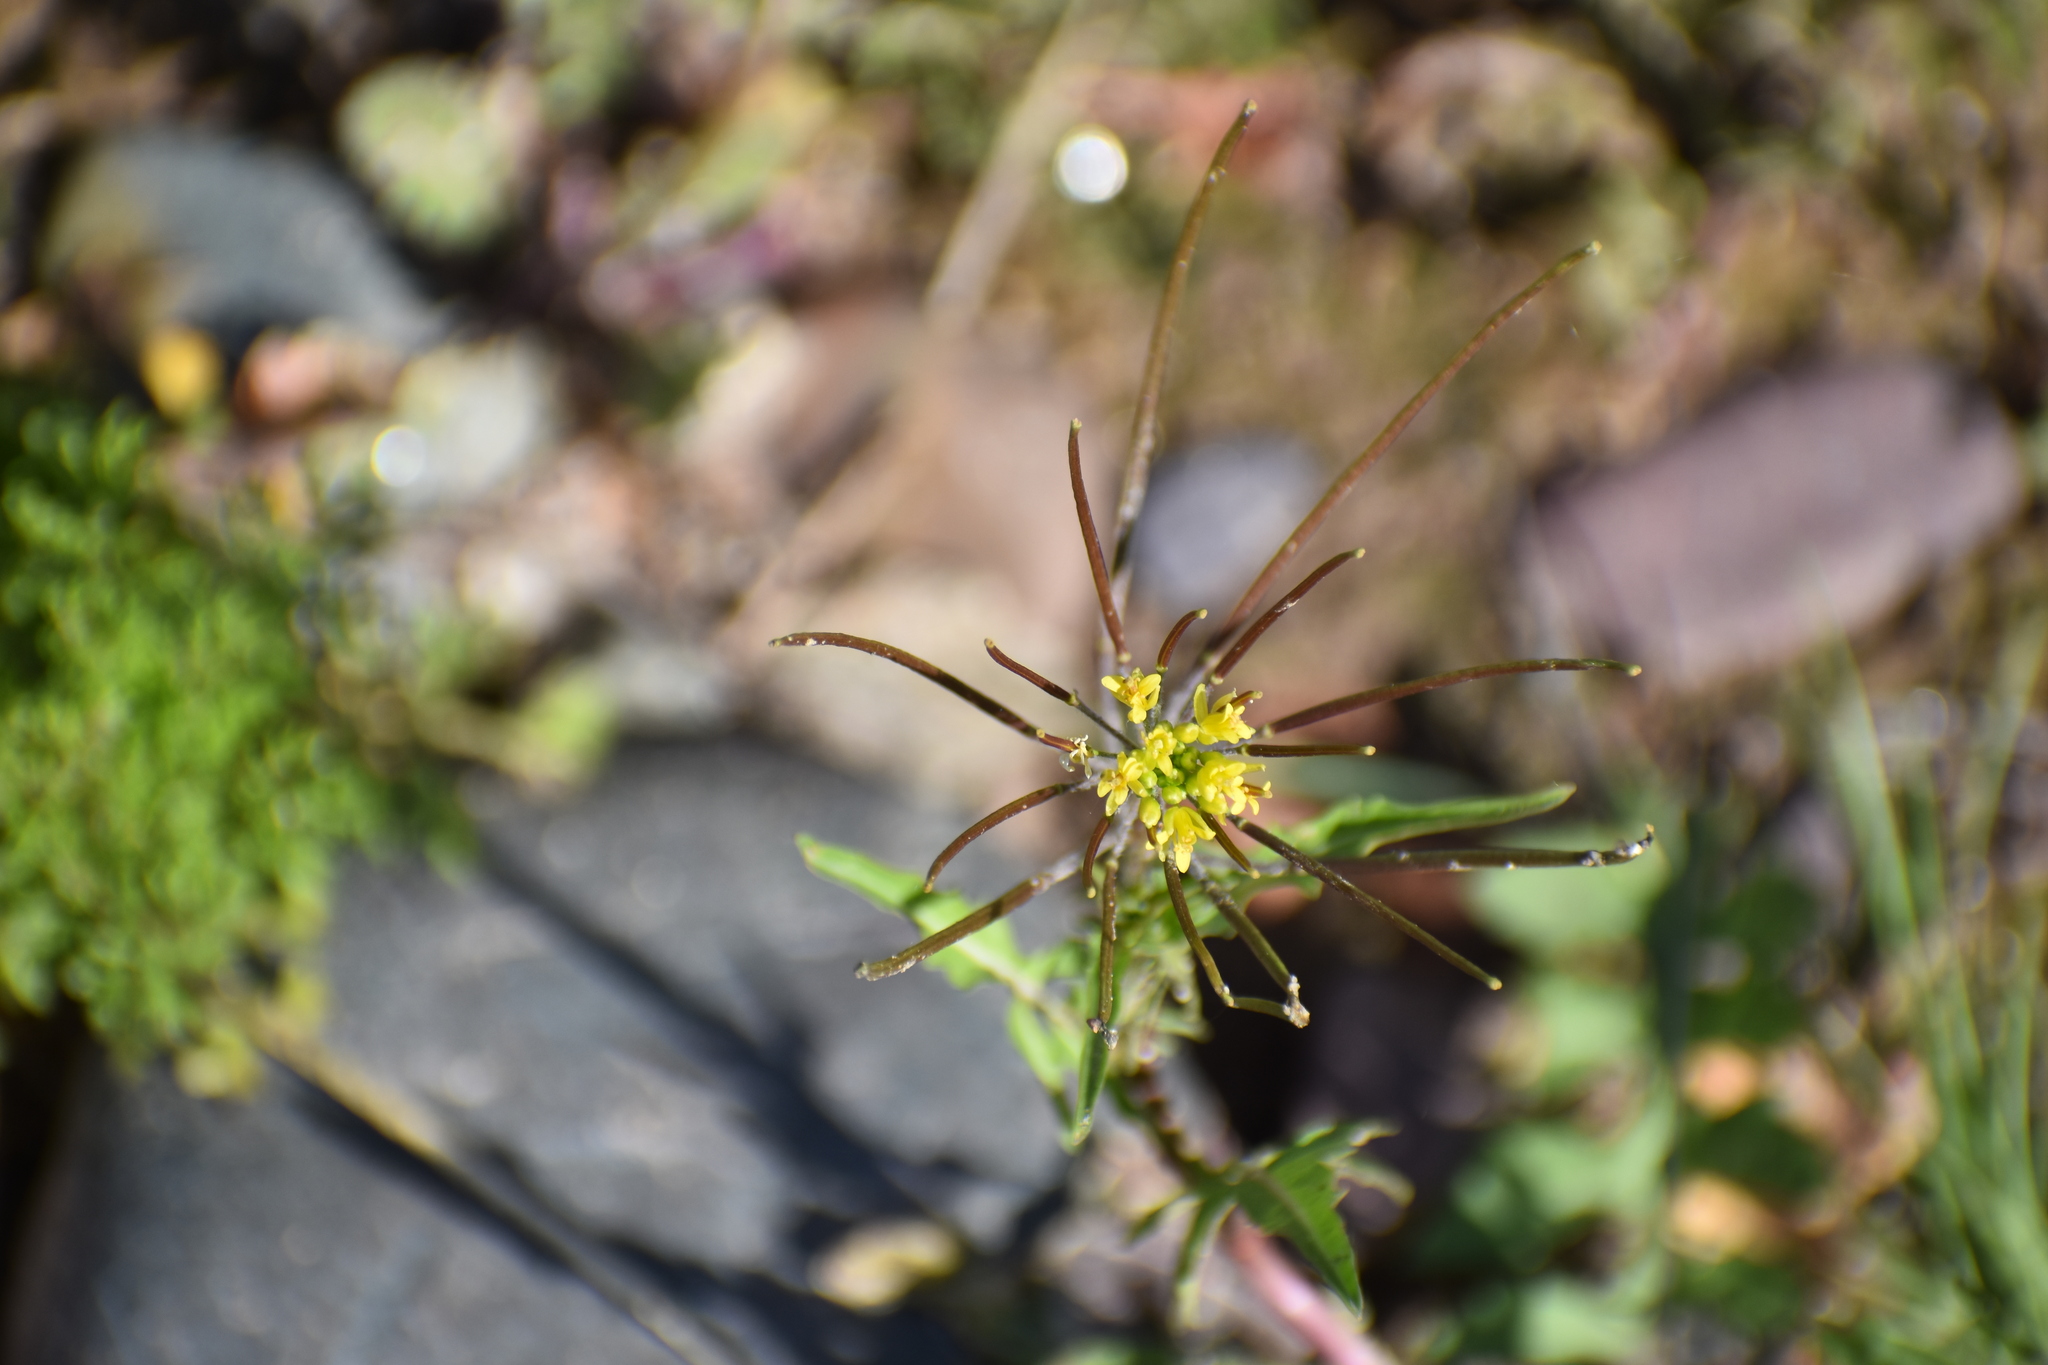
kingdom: Plantae
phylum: Tracheophyta
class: Magnoliopsida
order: Brassicales
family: Brassicaceae
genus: Sisymbrium
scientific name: Sisymbrium irio
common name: London rocket
